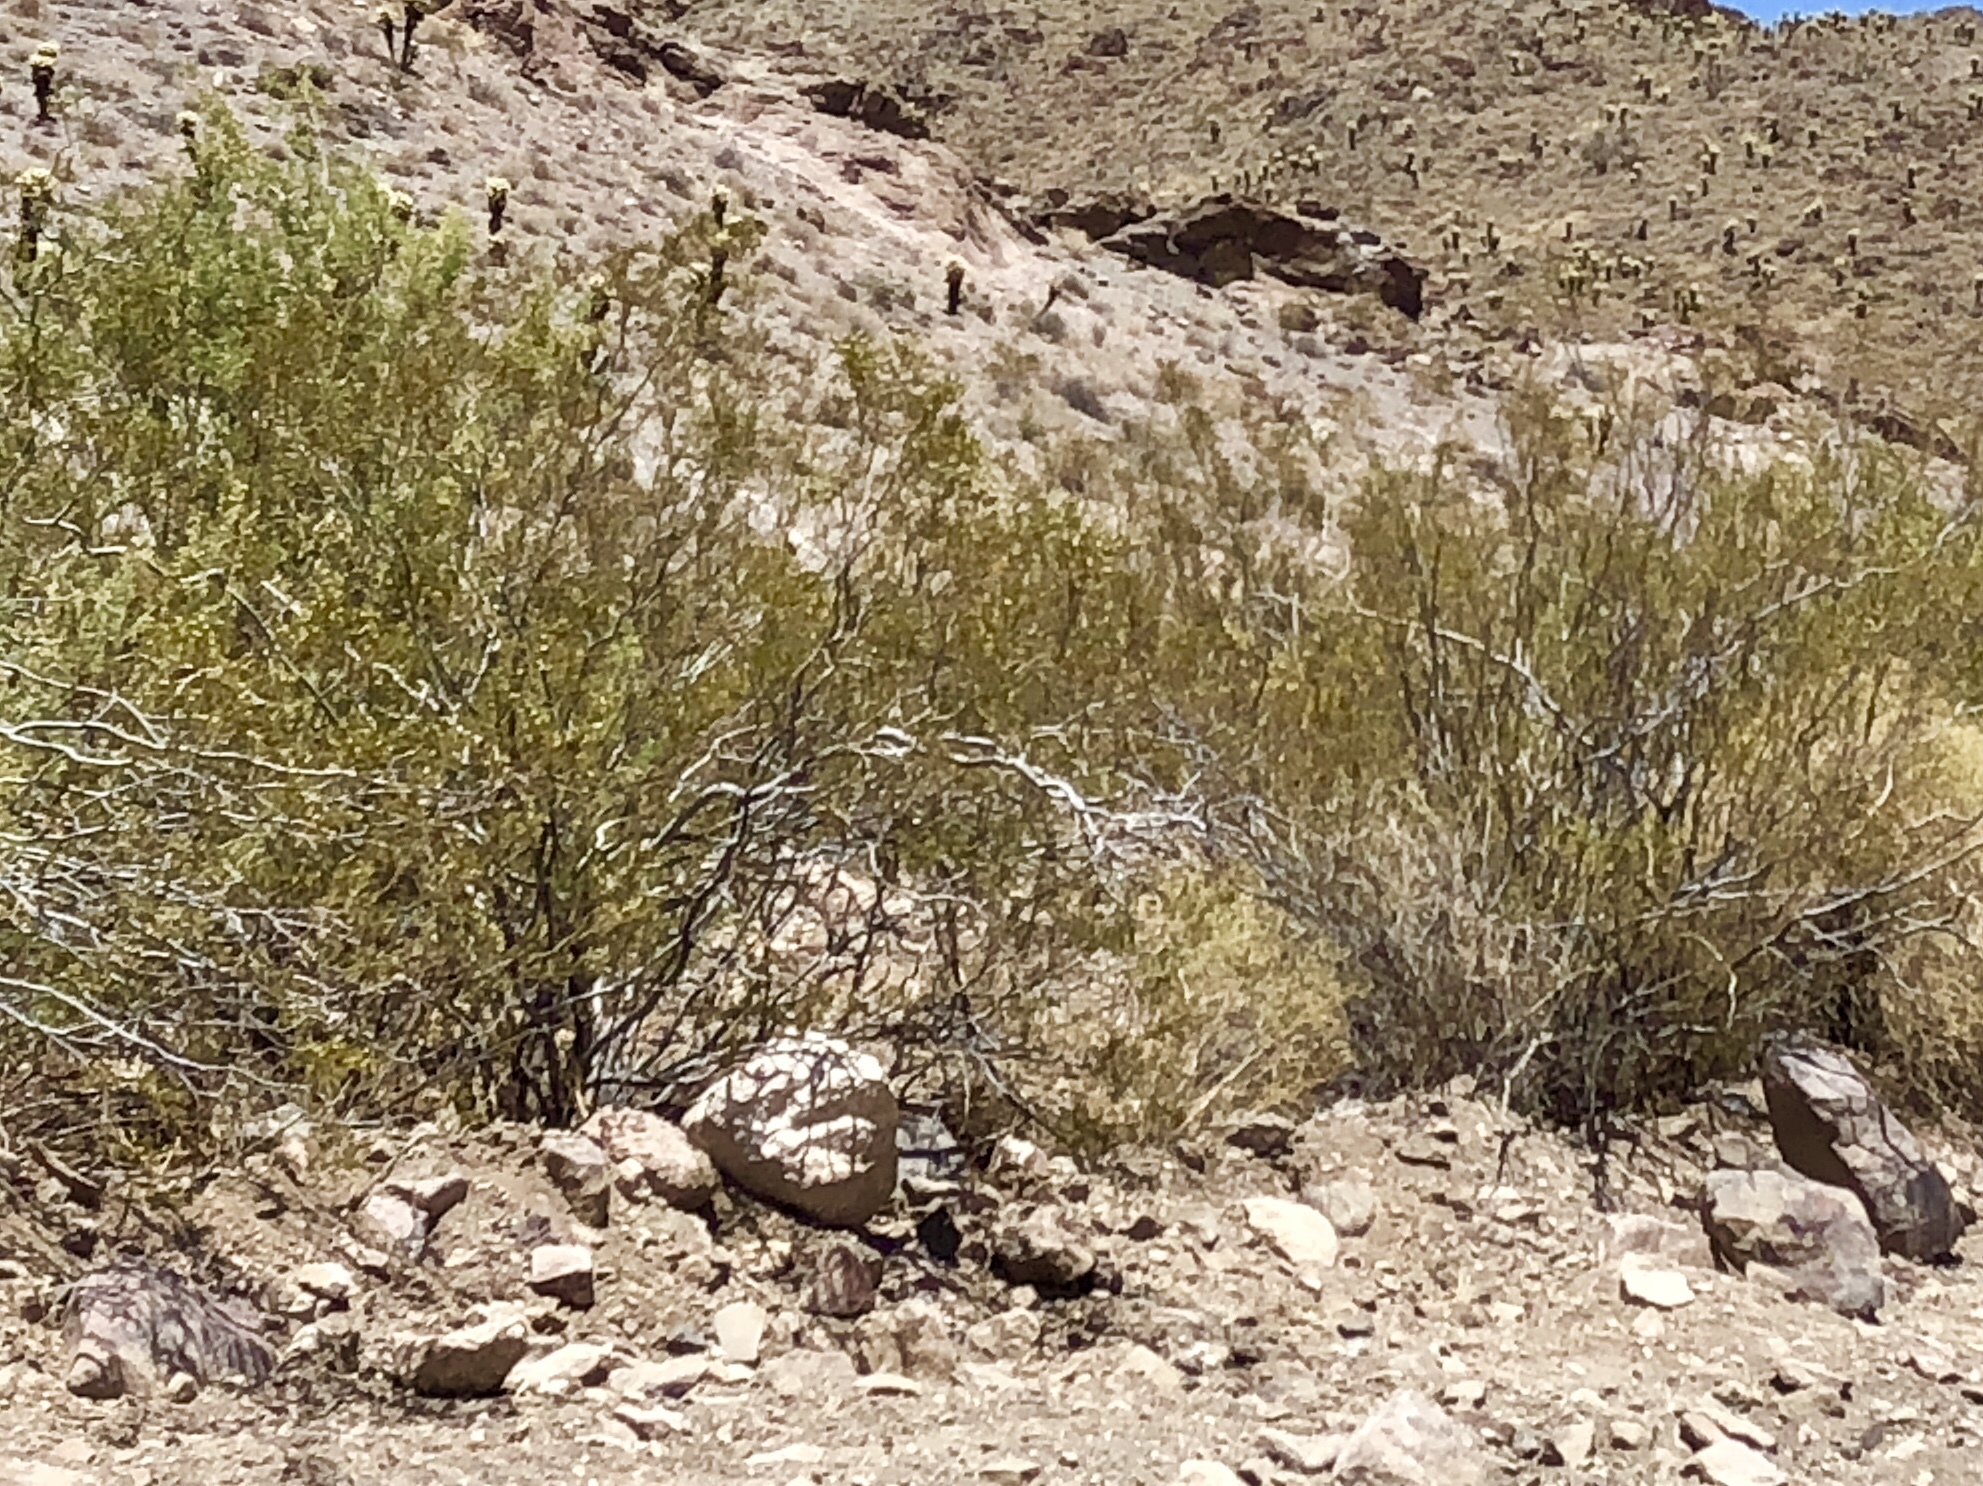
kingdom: Plantae
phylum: Tracheophyta
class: Magnoliopsida
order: Zygophyllales
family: Zygophyllaceae
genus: Larrea
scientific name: Larrea tridentata
